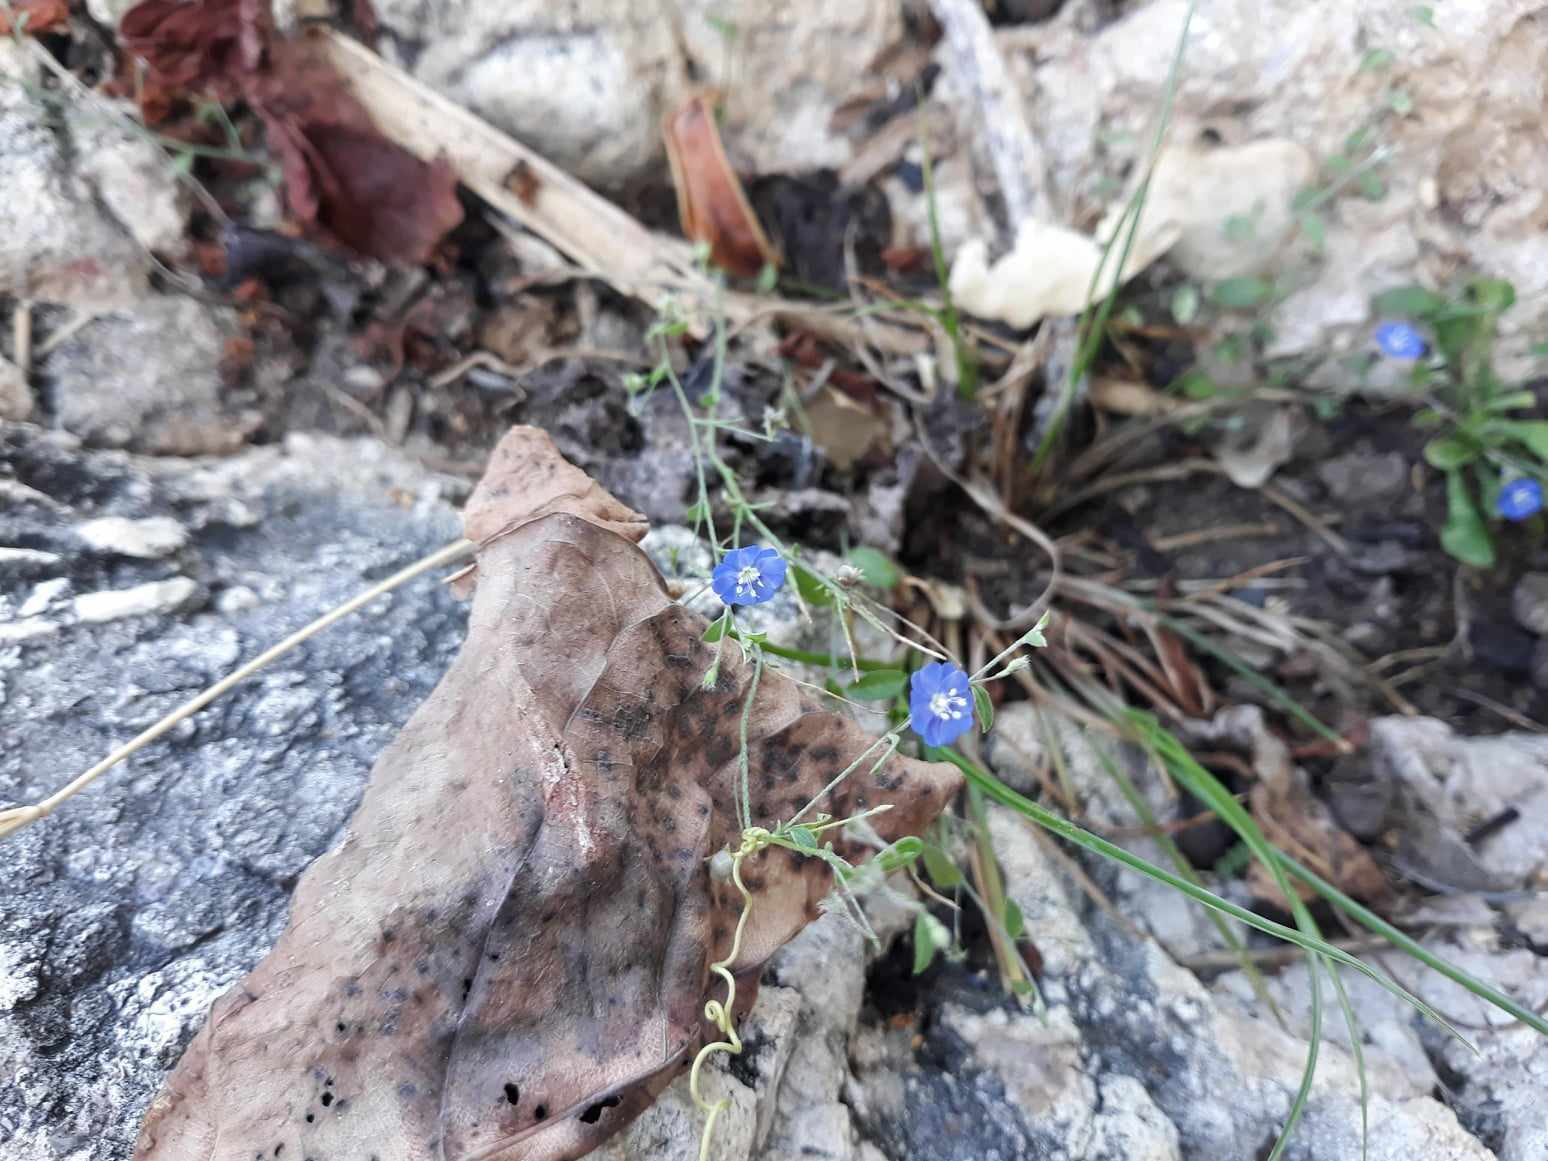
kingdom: Plantae
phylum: Tracheophyta
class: Magnoliopsida
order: Solanales
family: Convolvulaceae
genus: Evolvulus
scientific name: Evolvulus alsinoides
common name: Slender dwarf morning-glory
